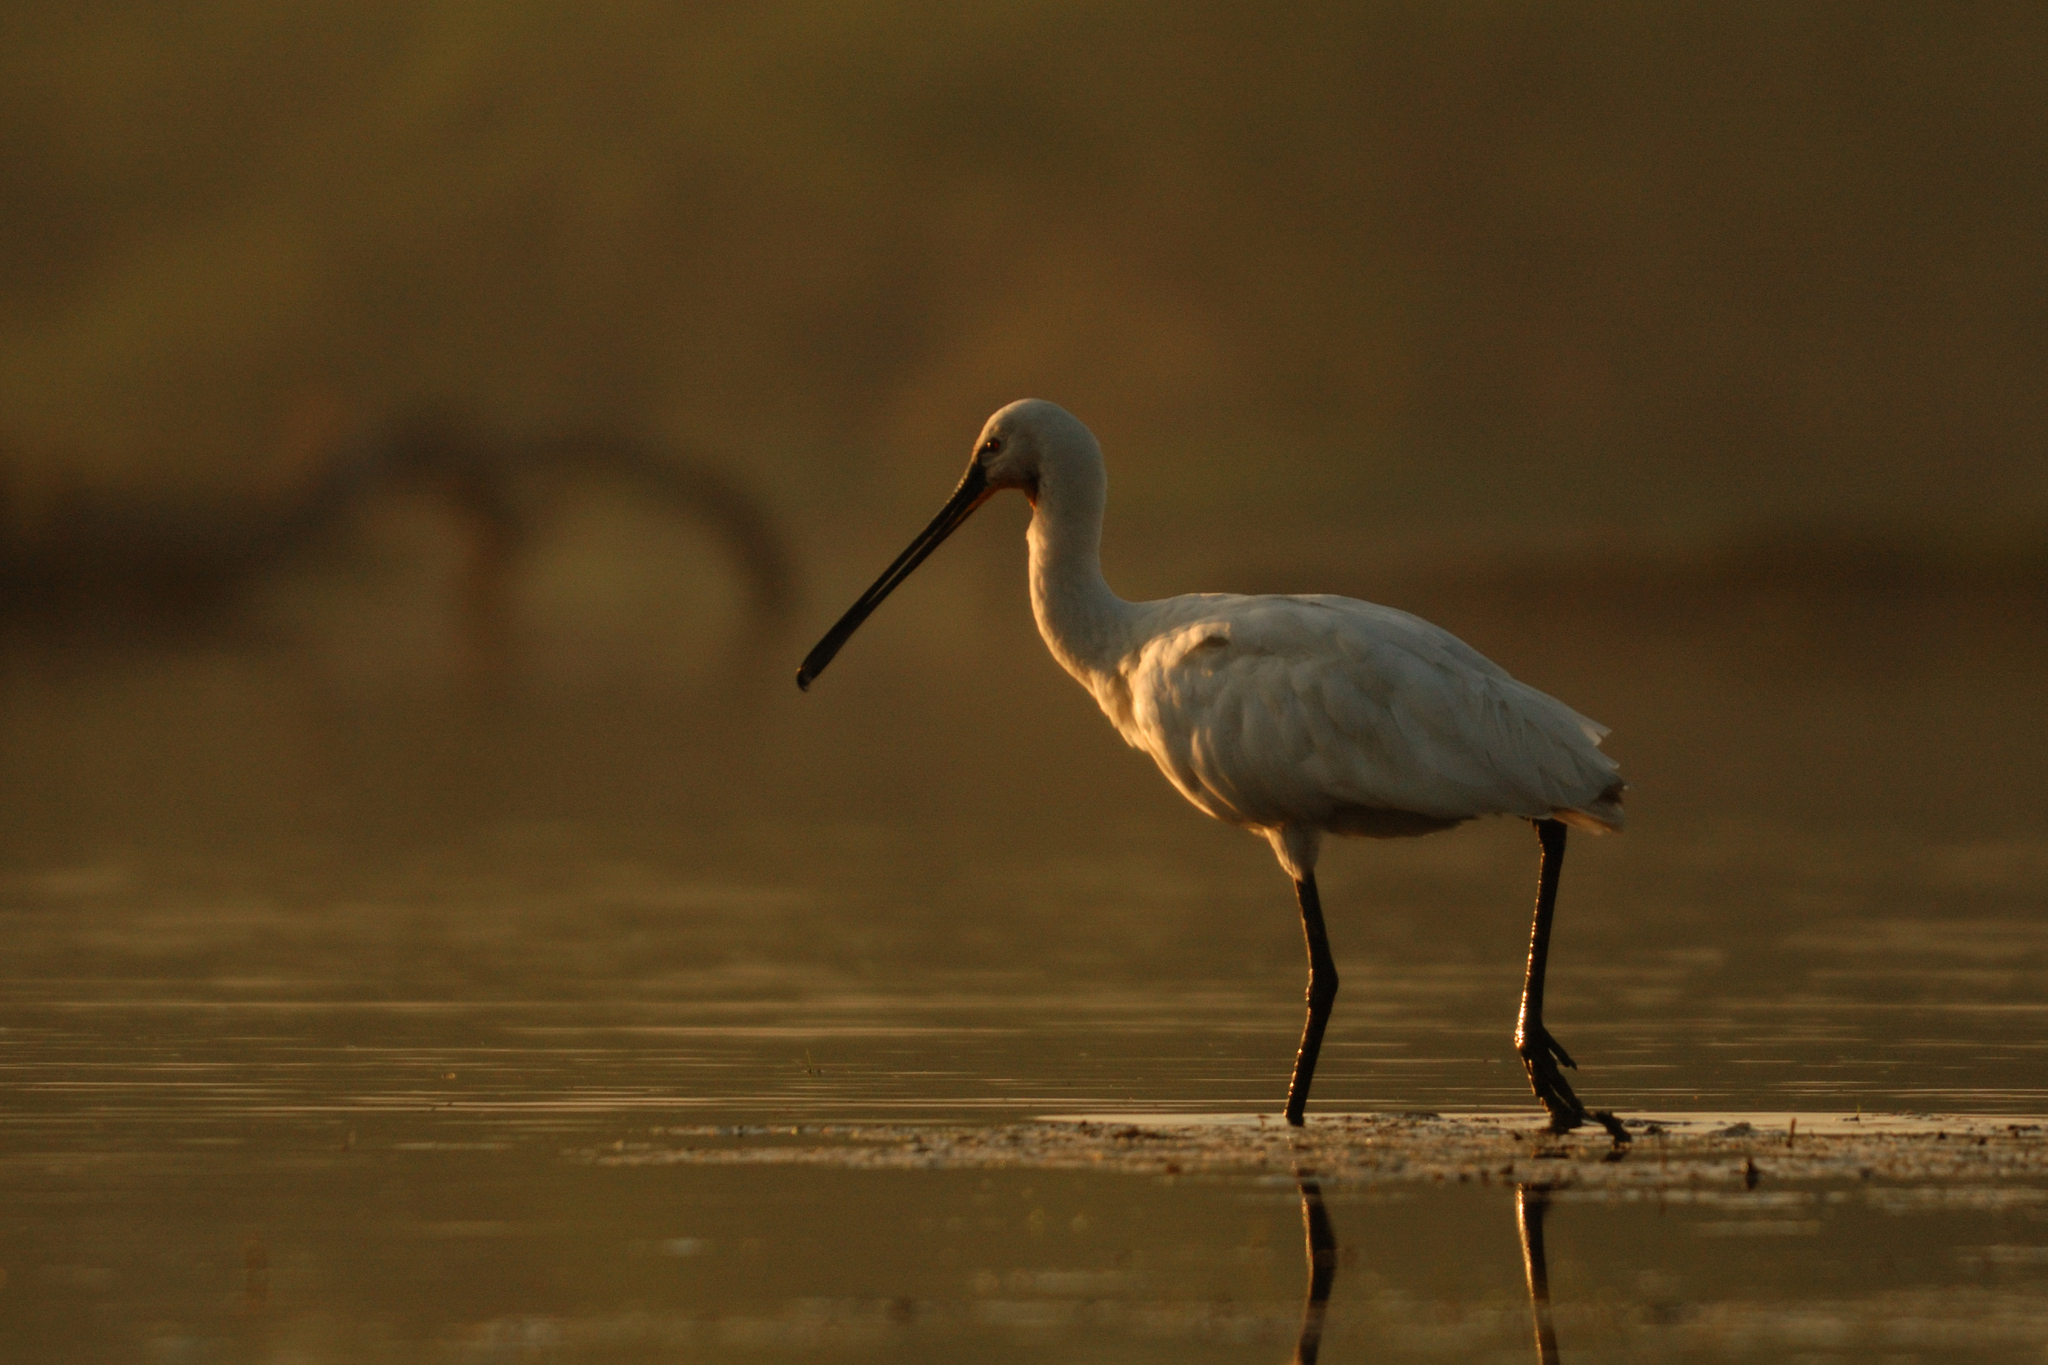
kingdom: Animalia
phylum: Chordata
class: Aves
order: Pelecaniformes
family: Threskiornithidae
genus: Platalea
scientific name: Platalea leucorodia
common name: Eurasian spoonbill
